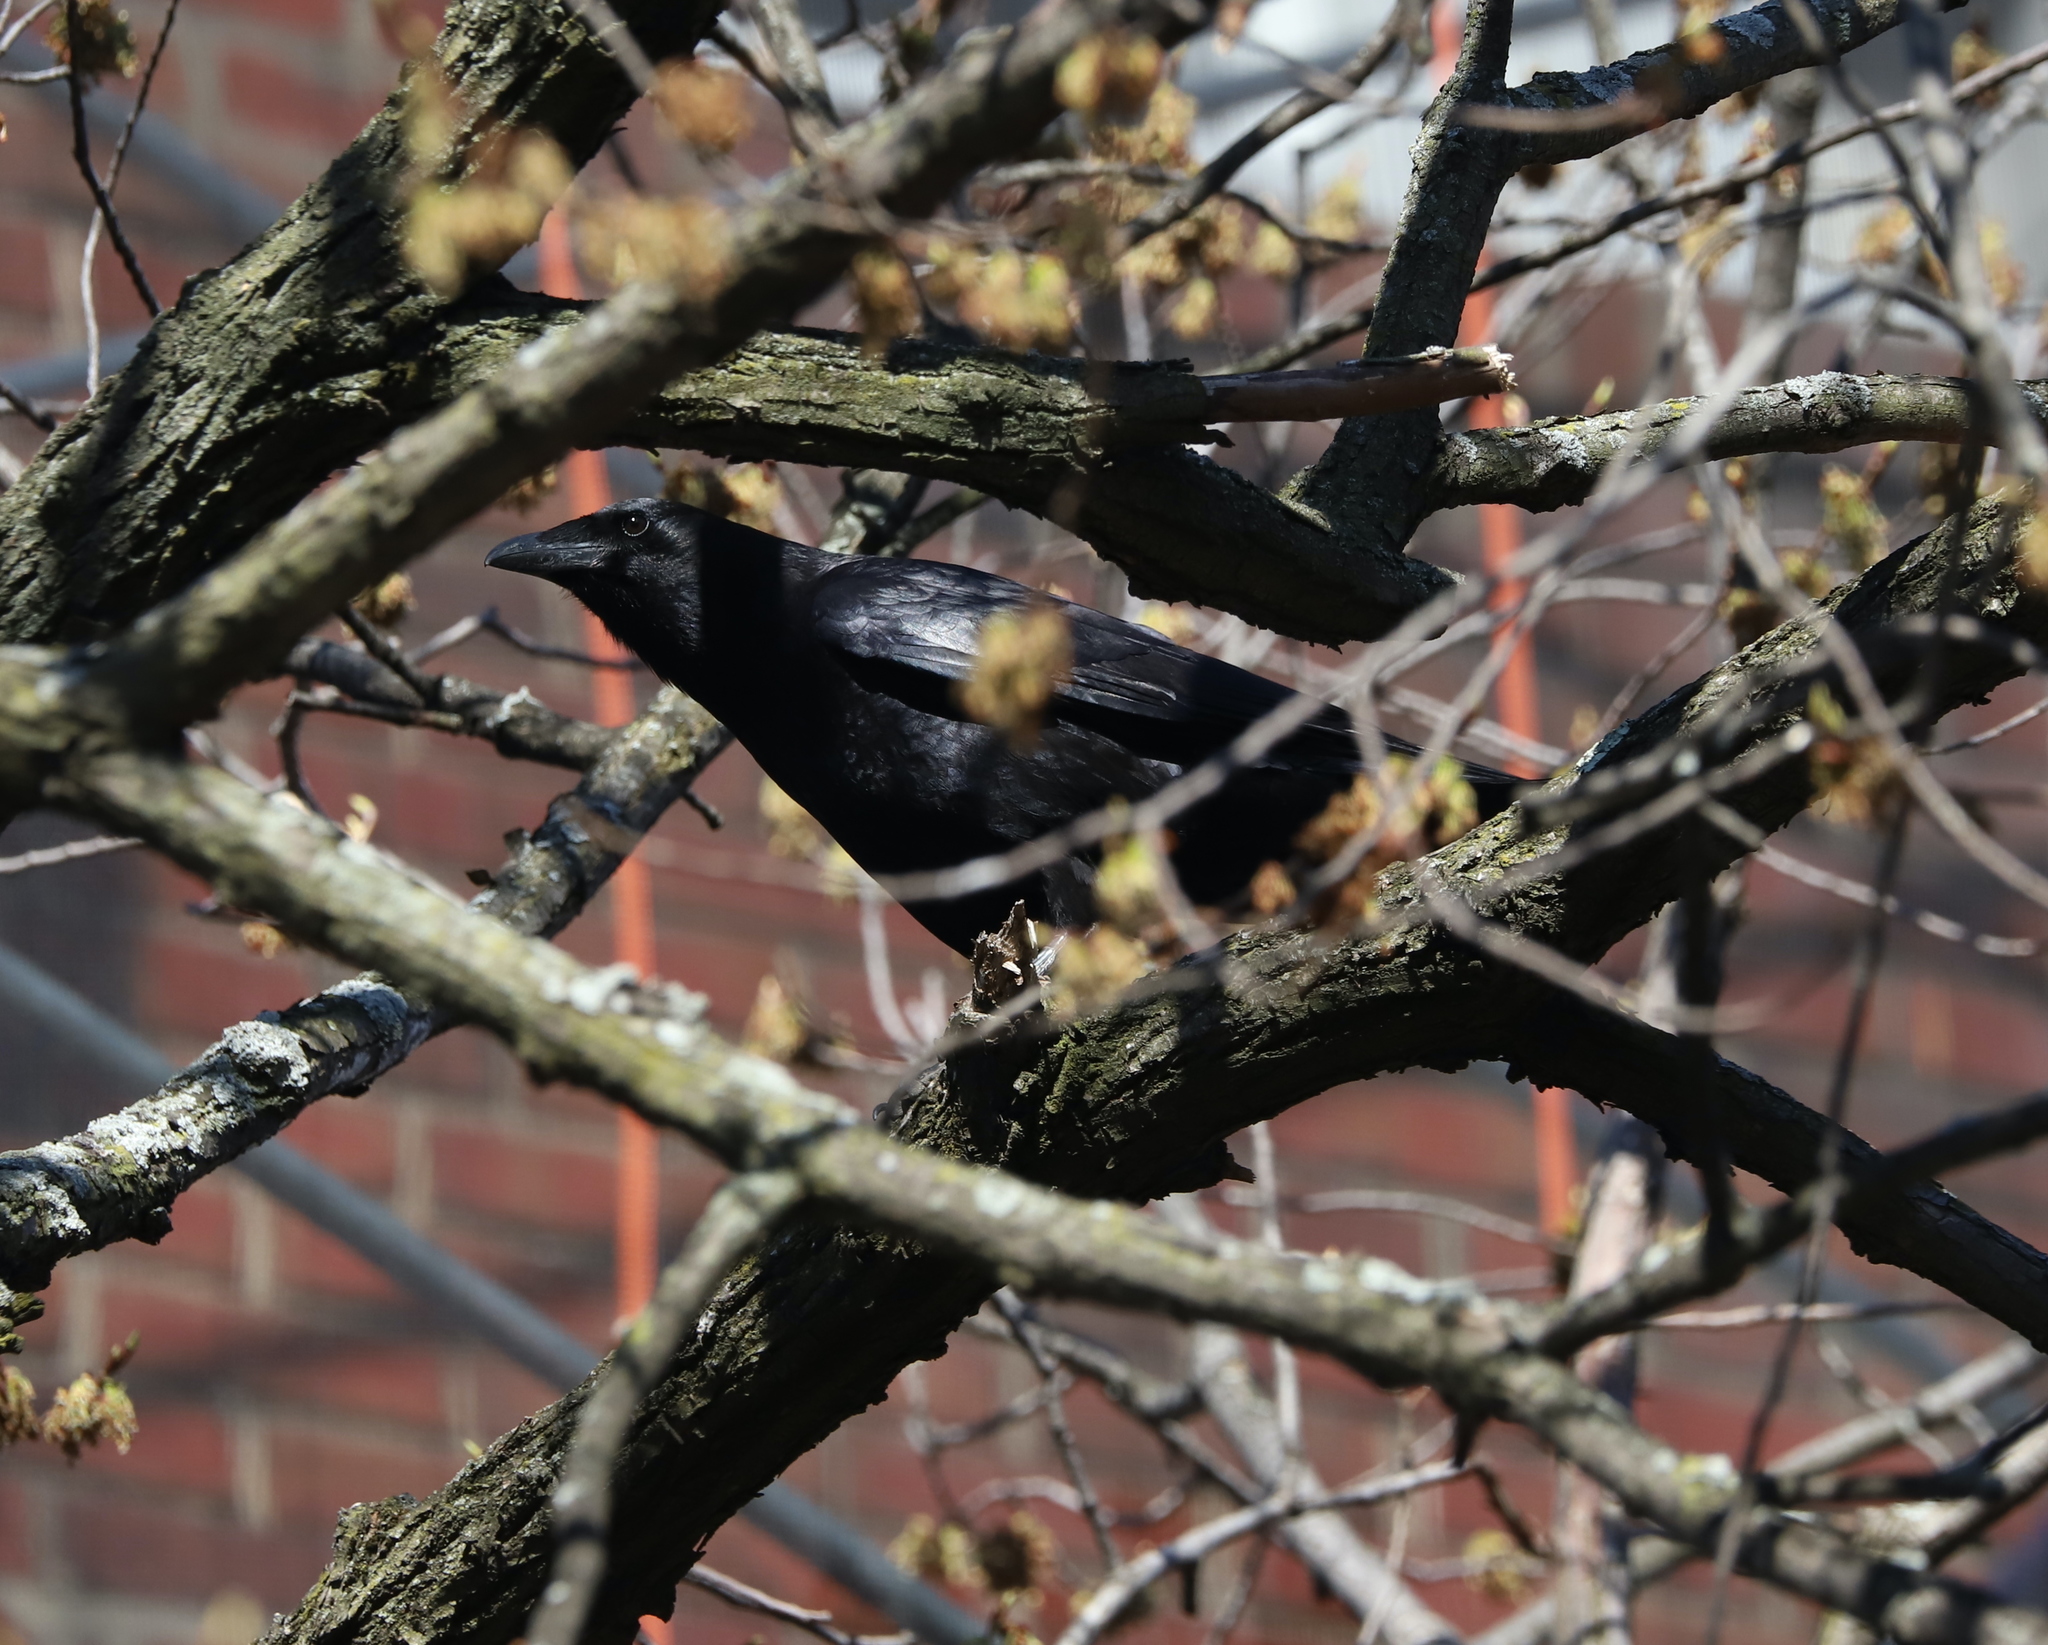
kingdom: Animalia
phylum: Chordata
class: Aves
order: Passeriformes
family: Corvidae
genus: Corvus
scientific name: Corvus
